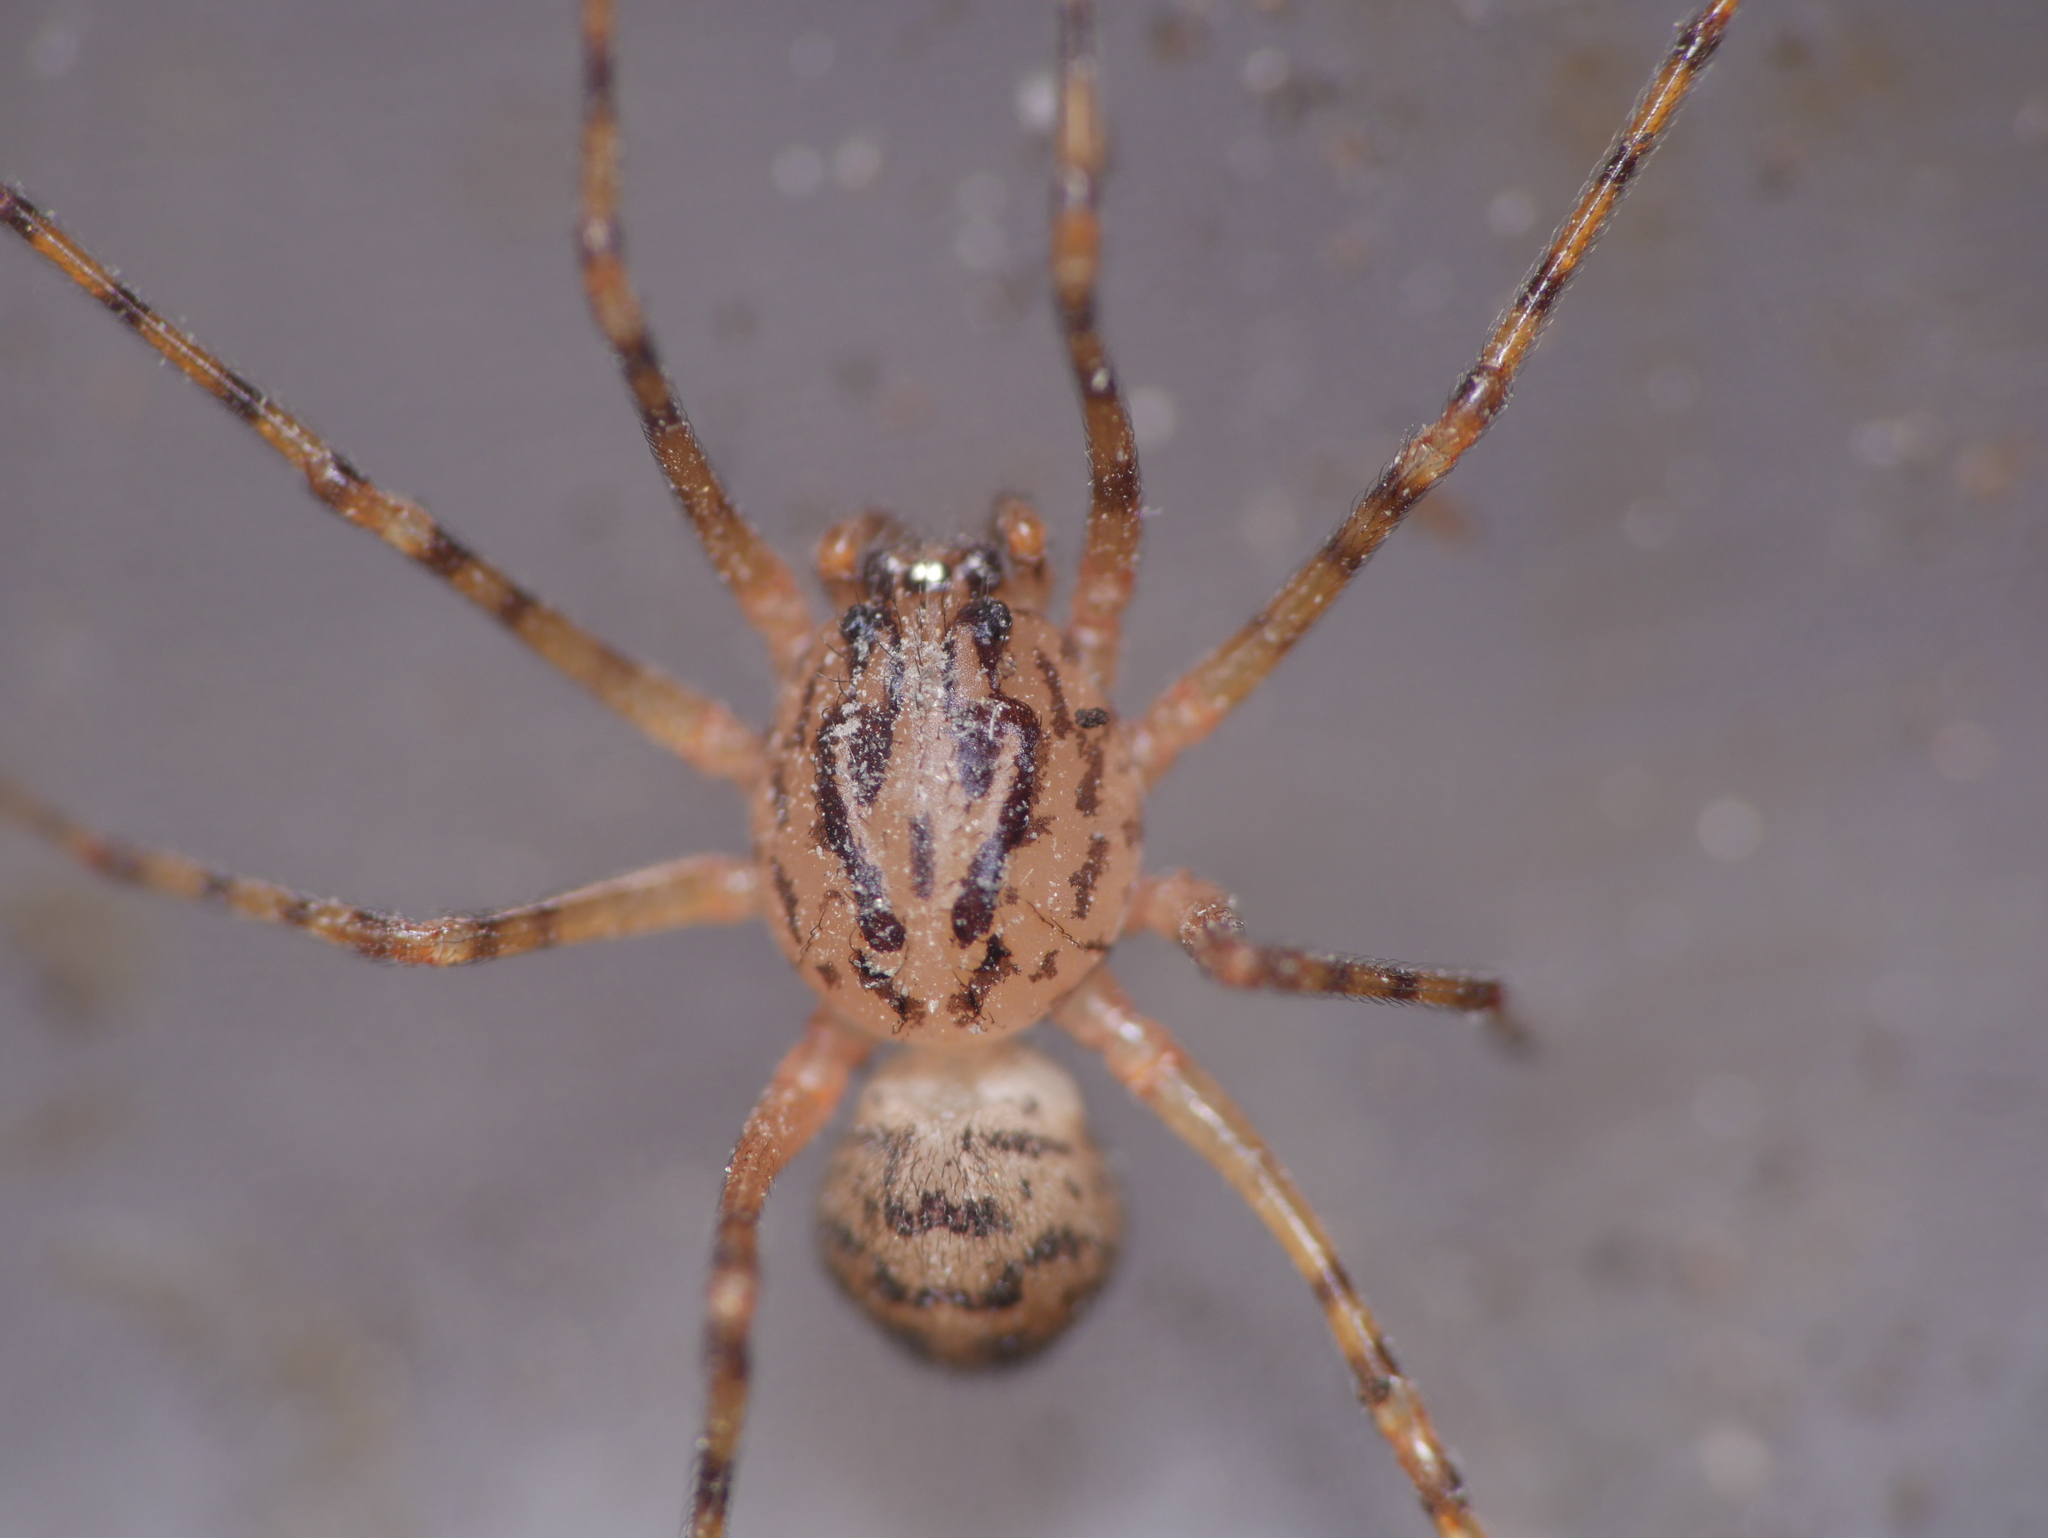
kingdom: Animalia
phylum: Arthropoda
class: Arachnida
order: Araneae
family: Scytodidae
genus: Scytodes
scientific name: Scytodes thoracica
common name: Spitting spider
